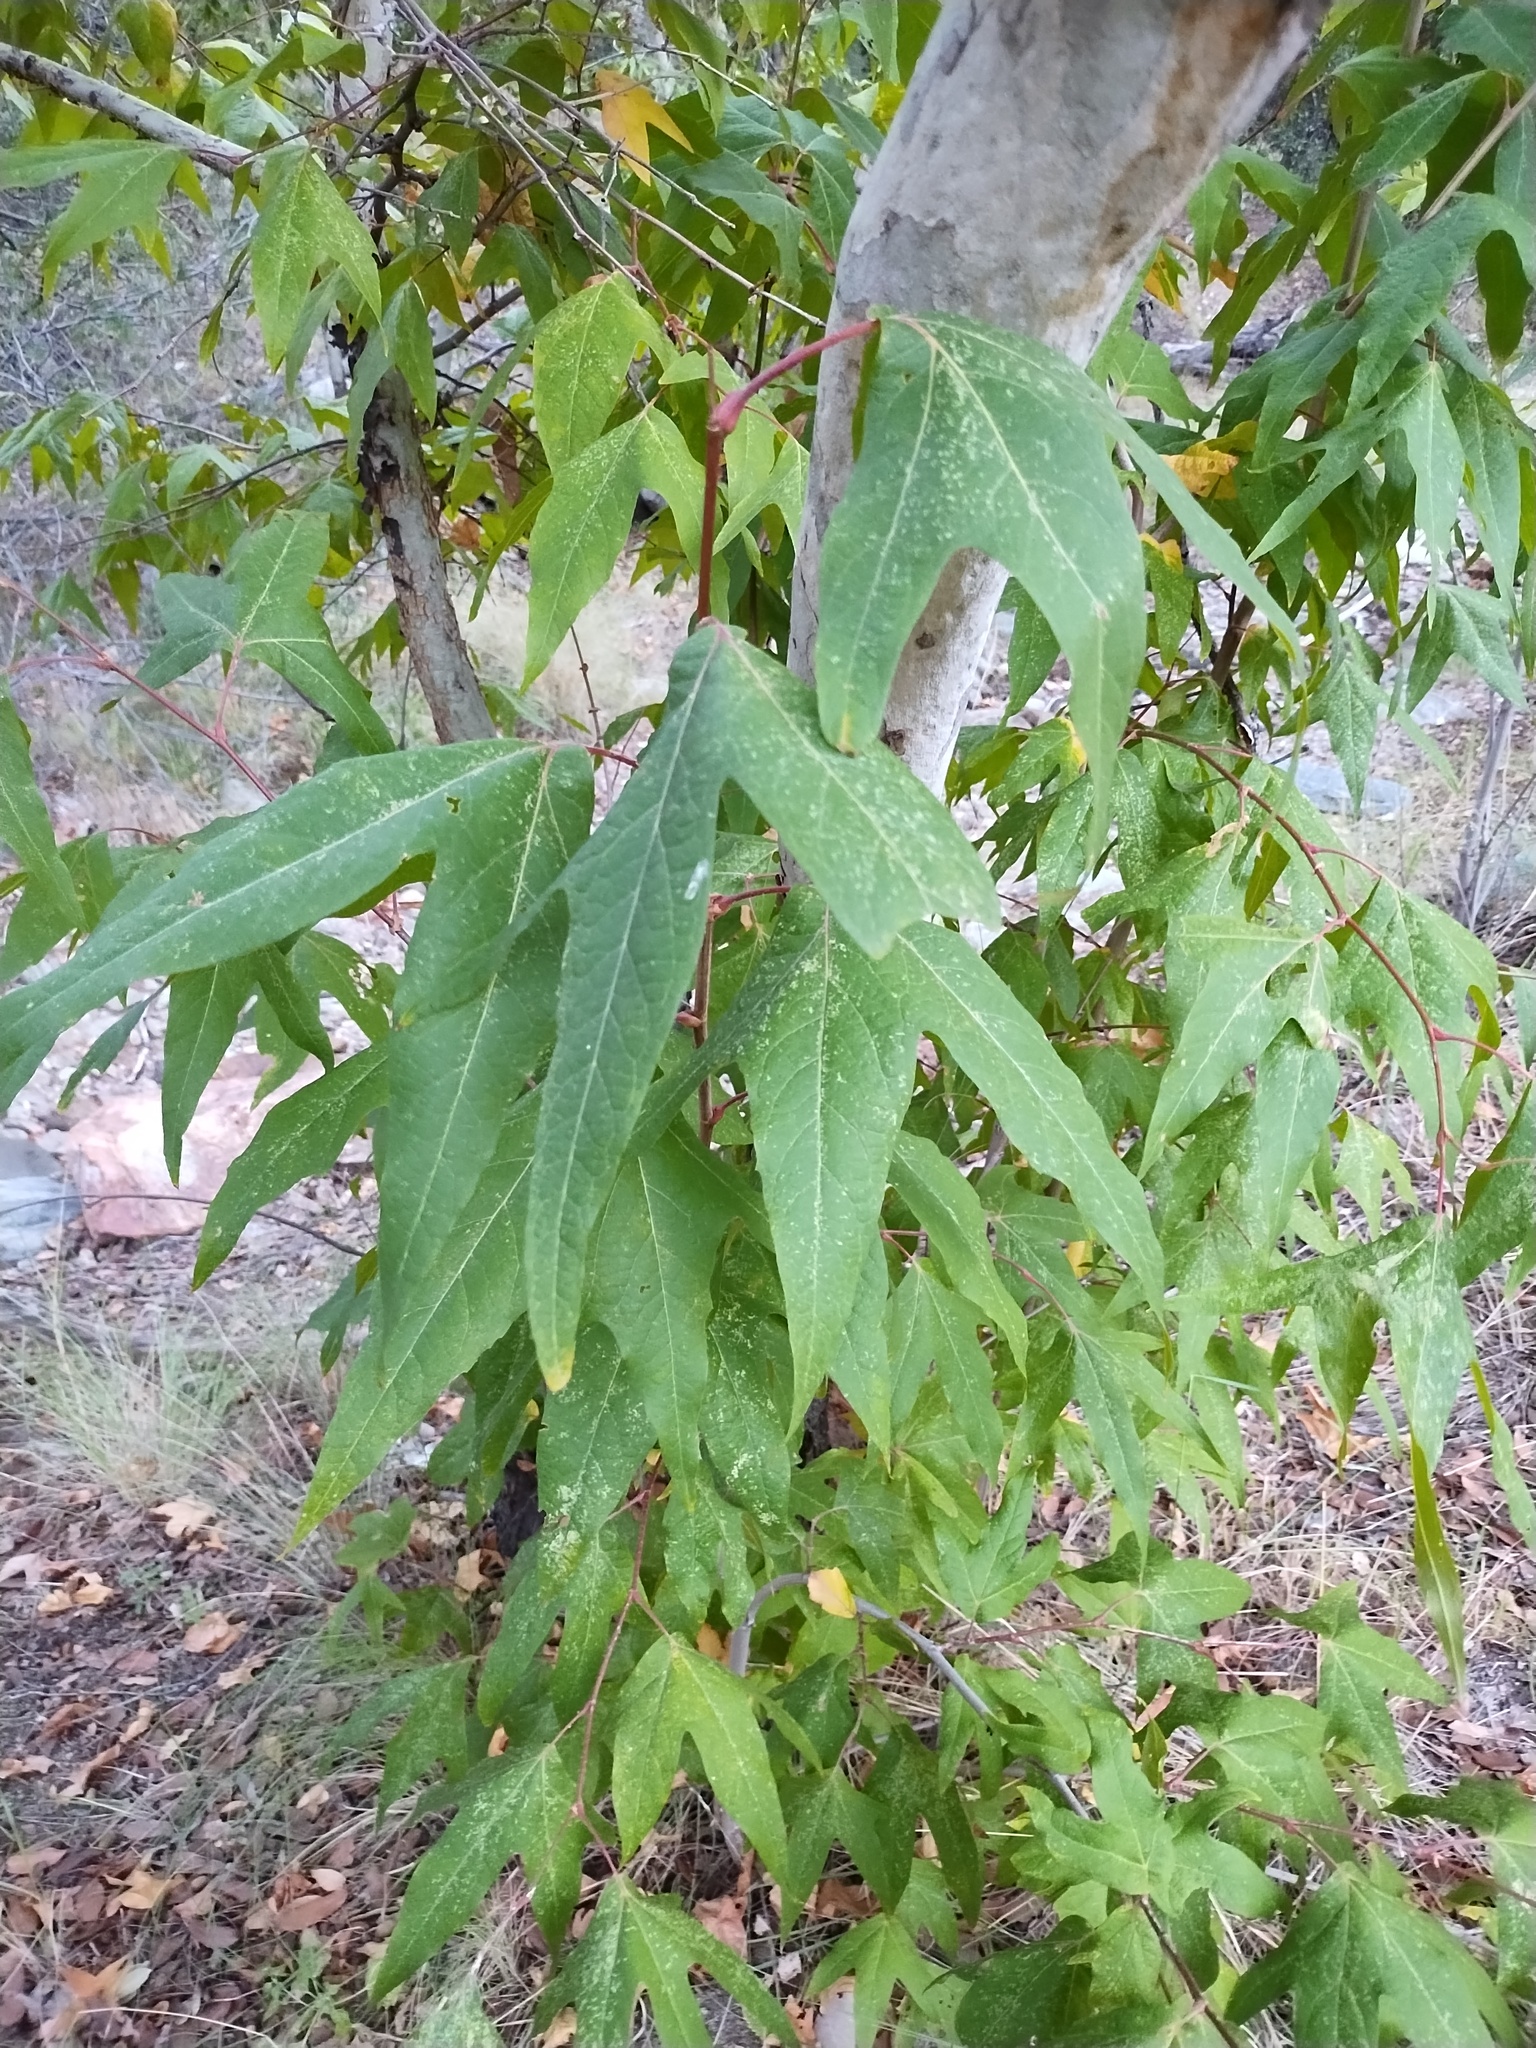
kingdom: Plantae
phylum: Tracheophyta
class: Magnoliopsida
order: Proteales
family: Platanaceae
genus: Platanus
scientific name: Platanus wrightii
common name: Arizona sycamore
